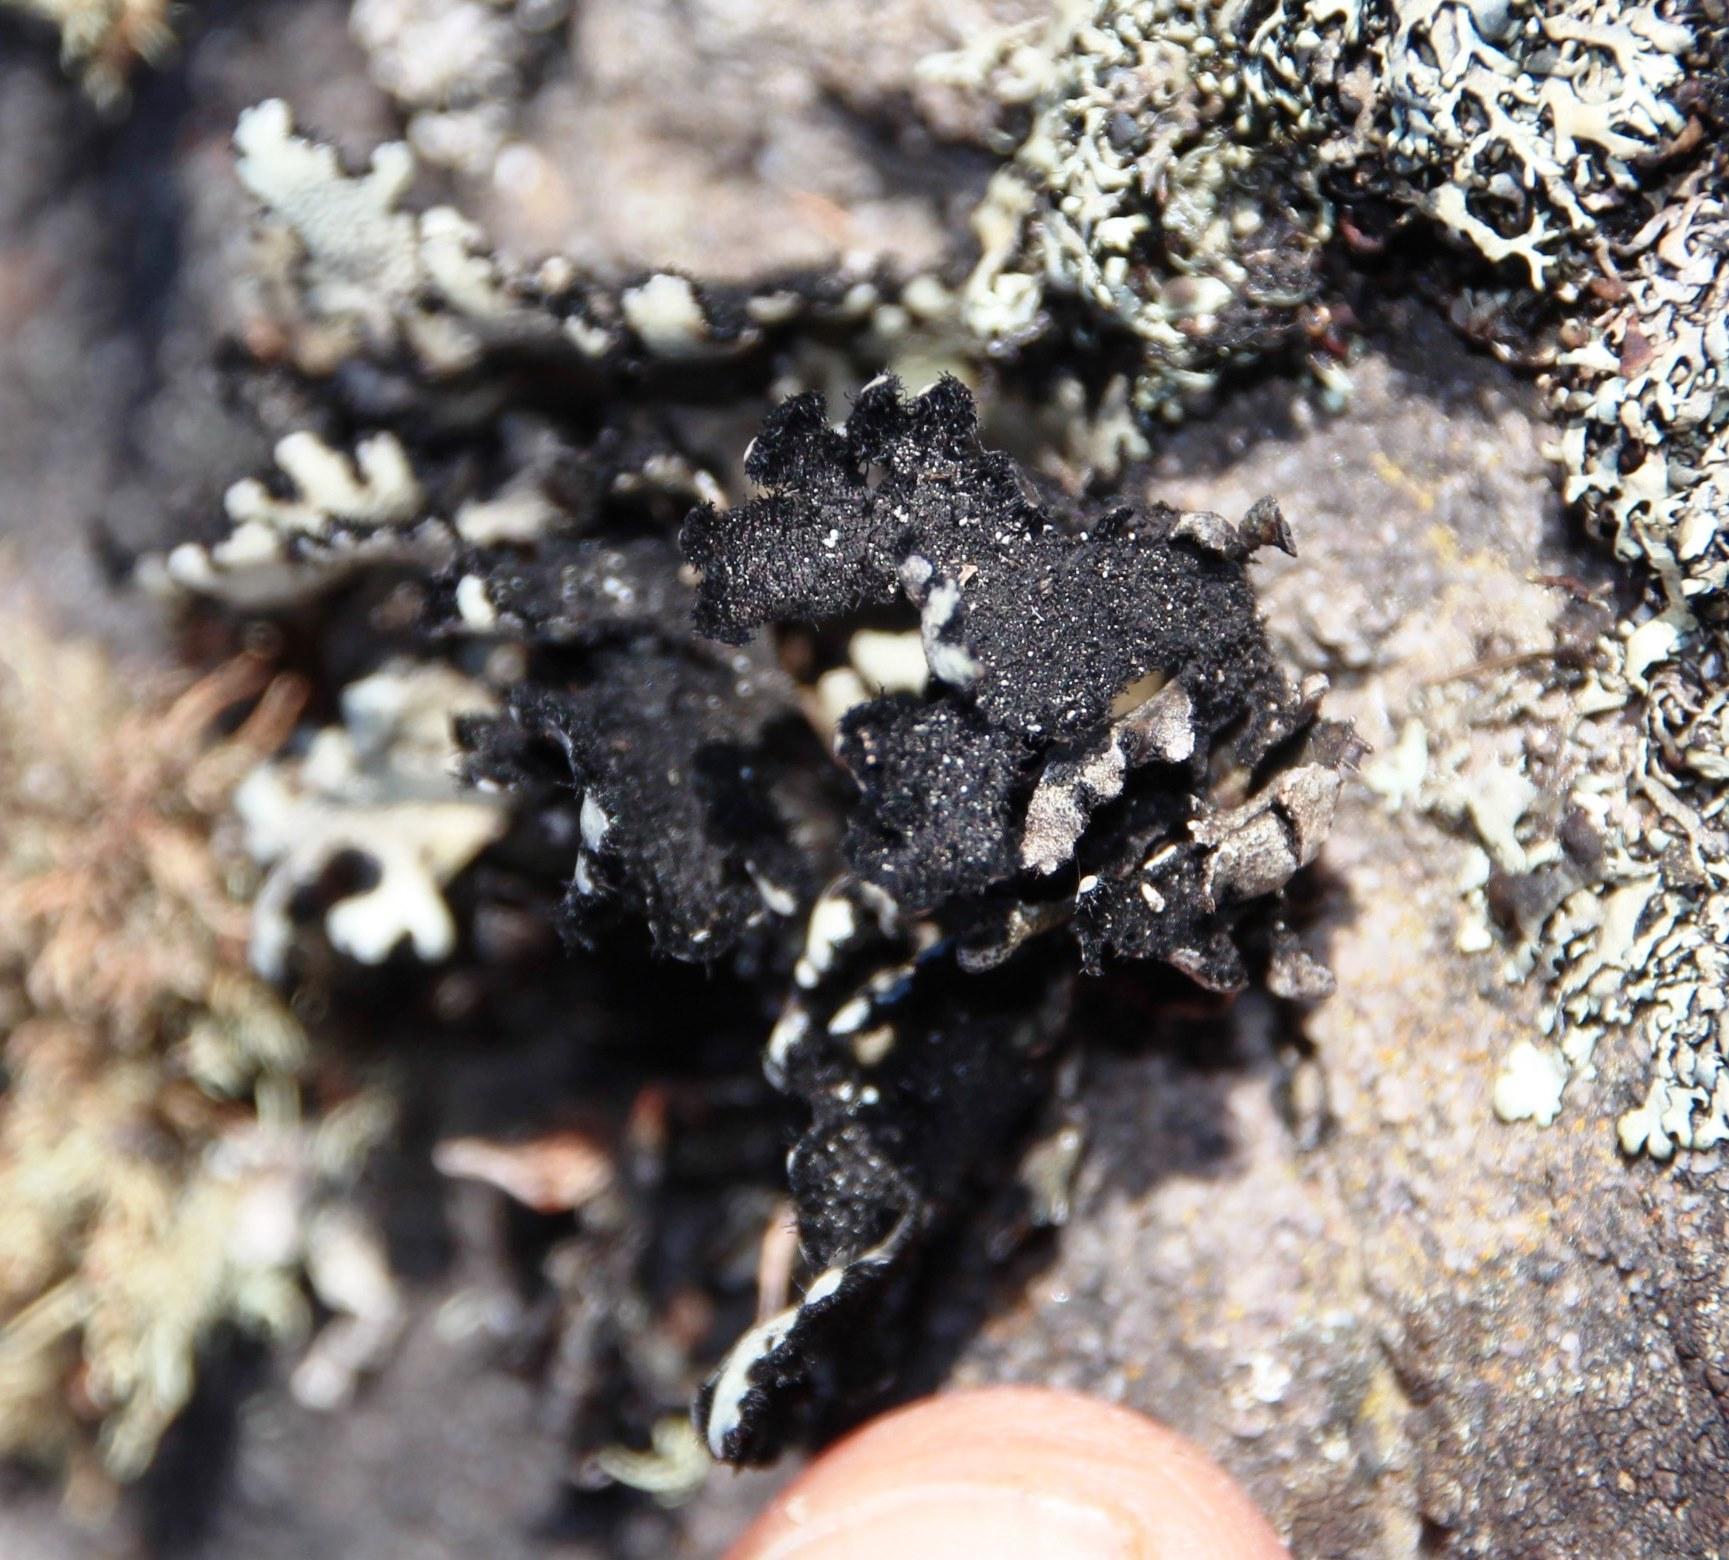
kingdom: Fungi
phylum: Ascomycota
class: Lecanoromycetes
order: Lecanorales
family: Parmeliaceae
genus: Xanthoparmelia
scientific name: Xanthoparmelia hottentotta
